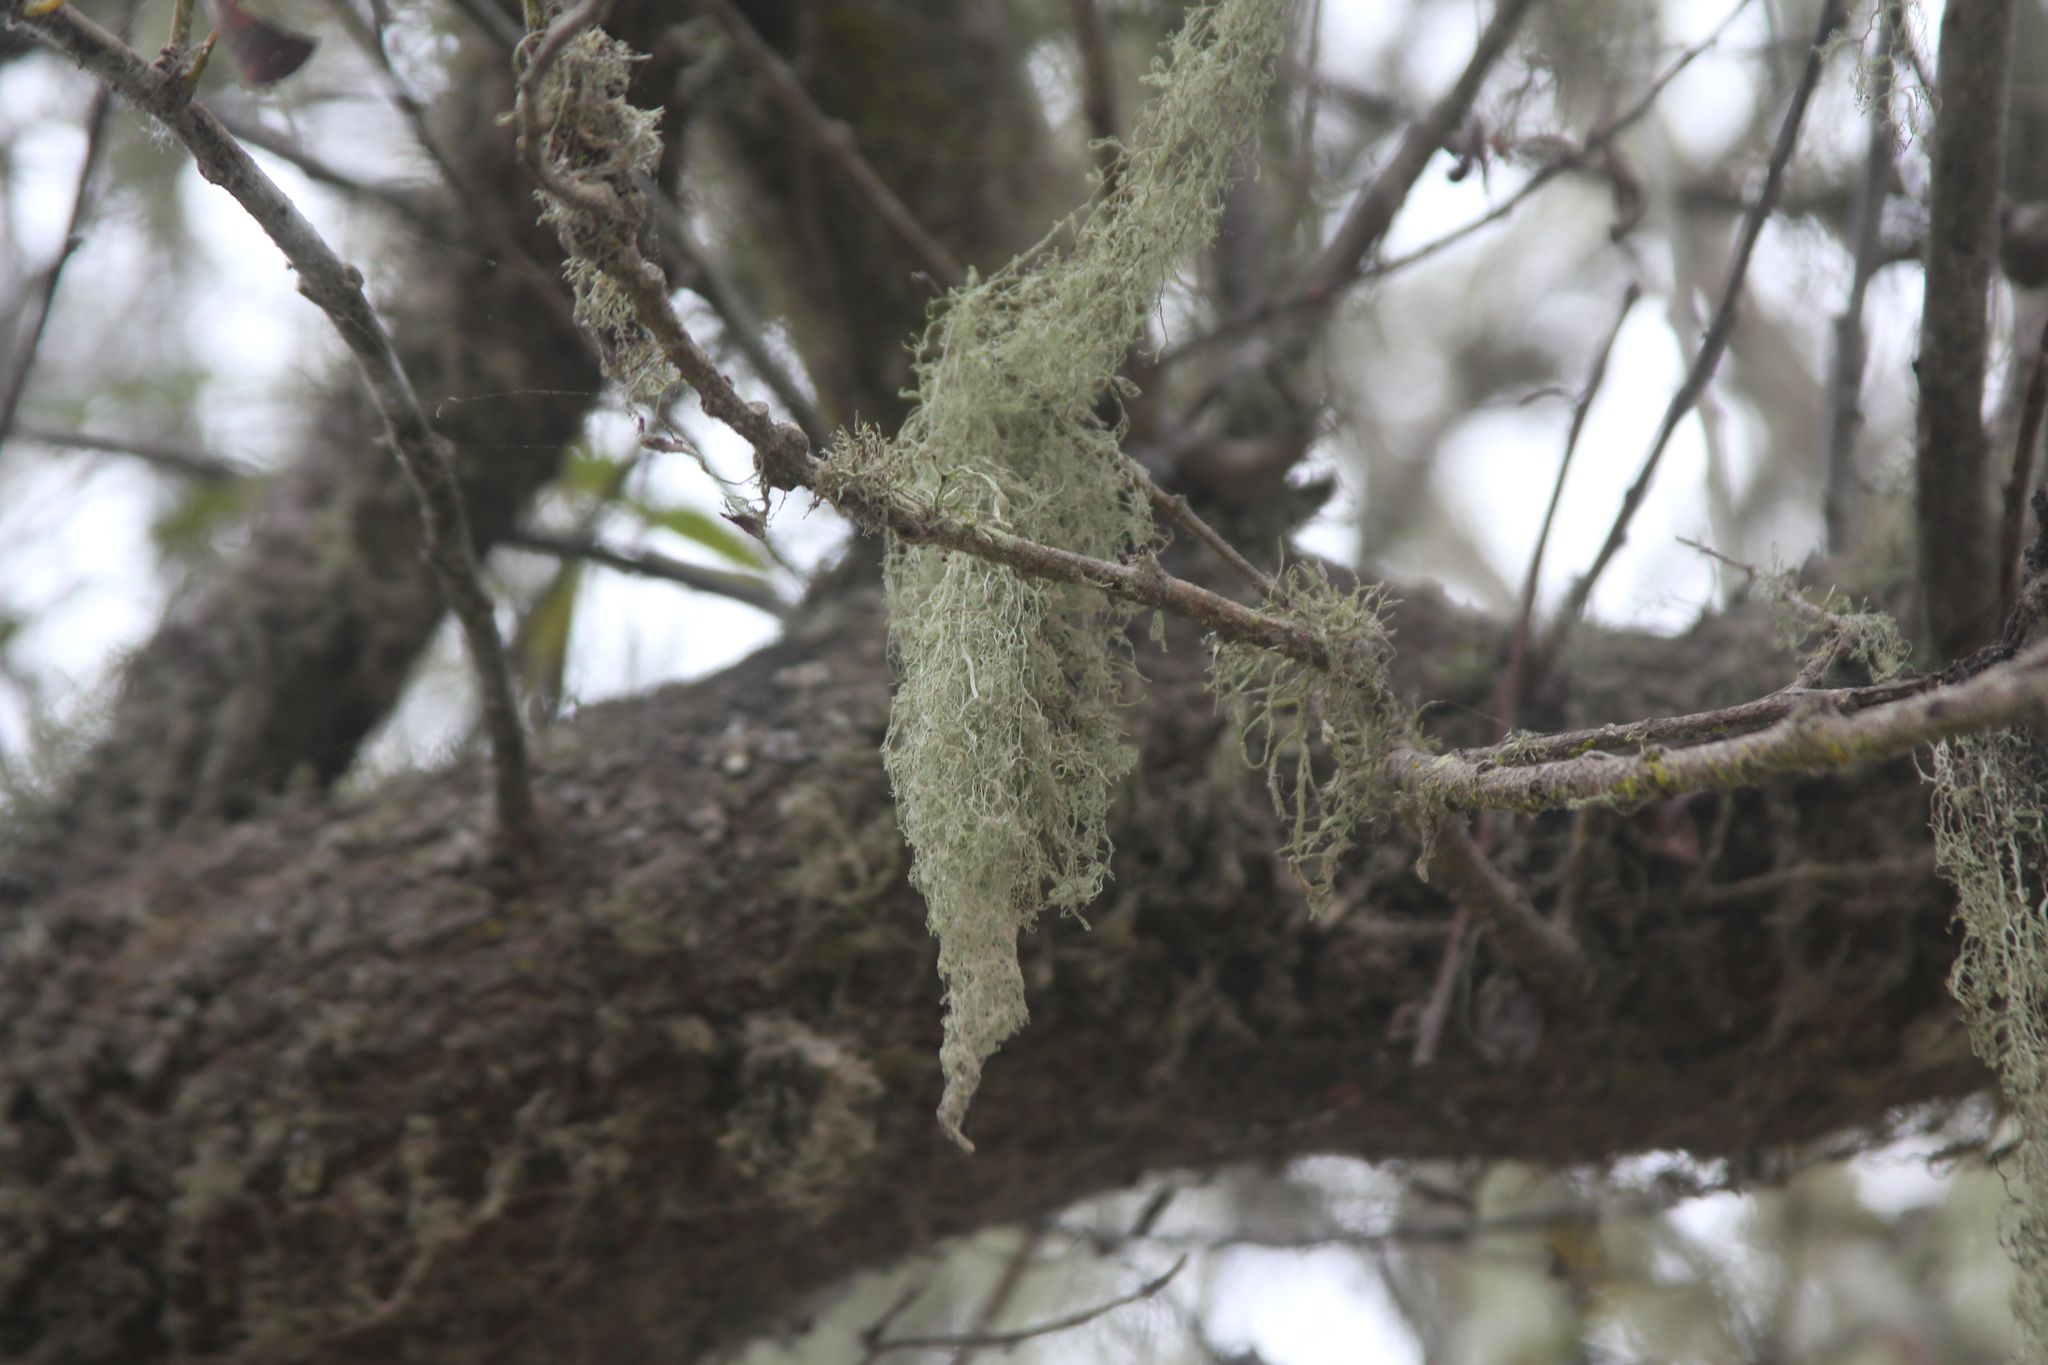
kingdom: Fungi
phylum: Ascomycota
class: Lecanoromycetes
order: Lecanorales
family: Ramalinaceae
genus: Ramalina
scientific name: Ramalina menziesii
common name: Lace lichen
